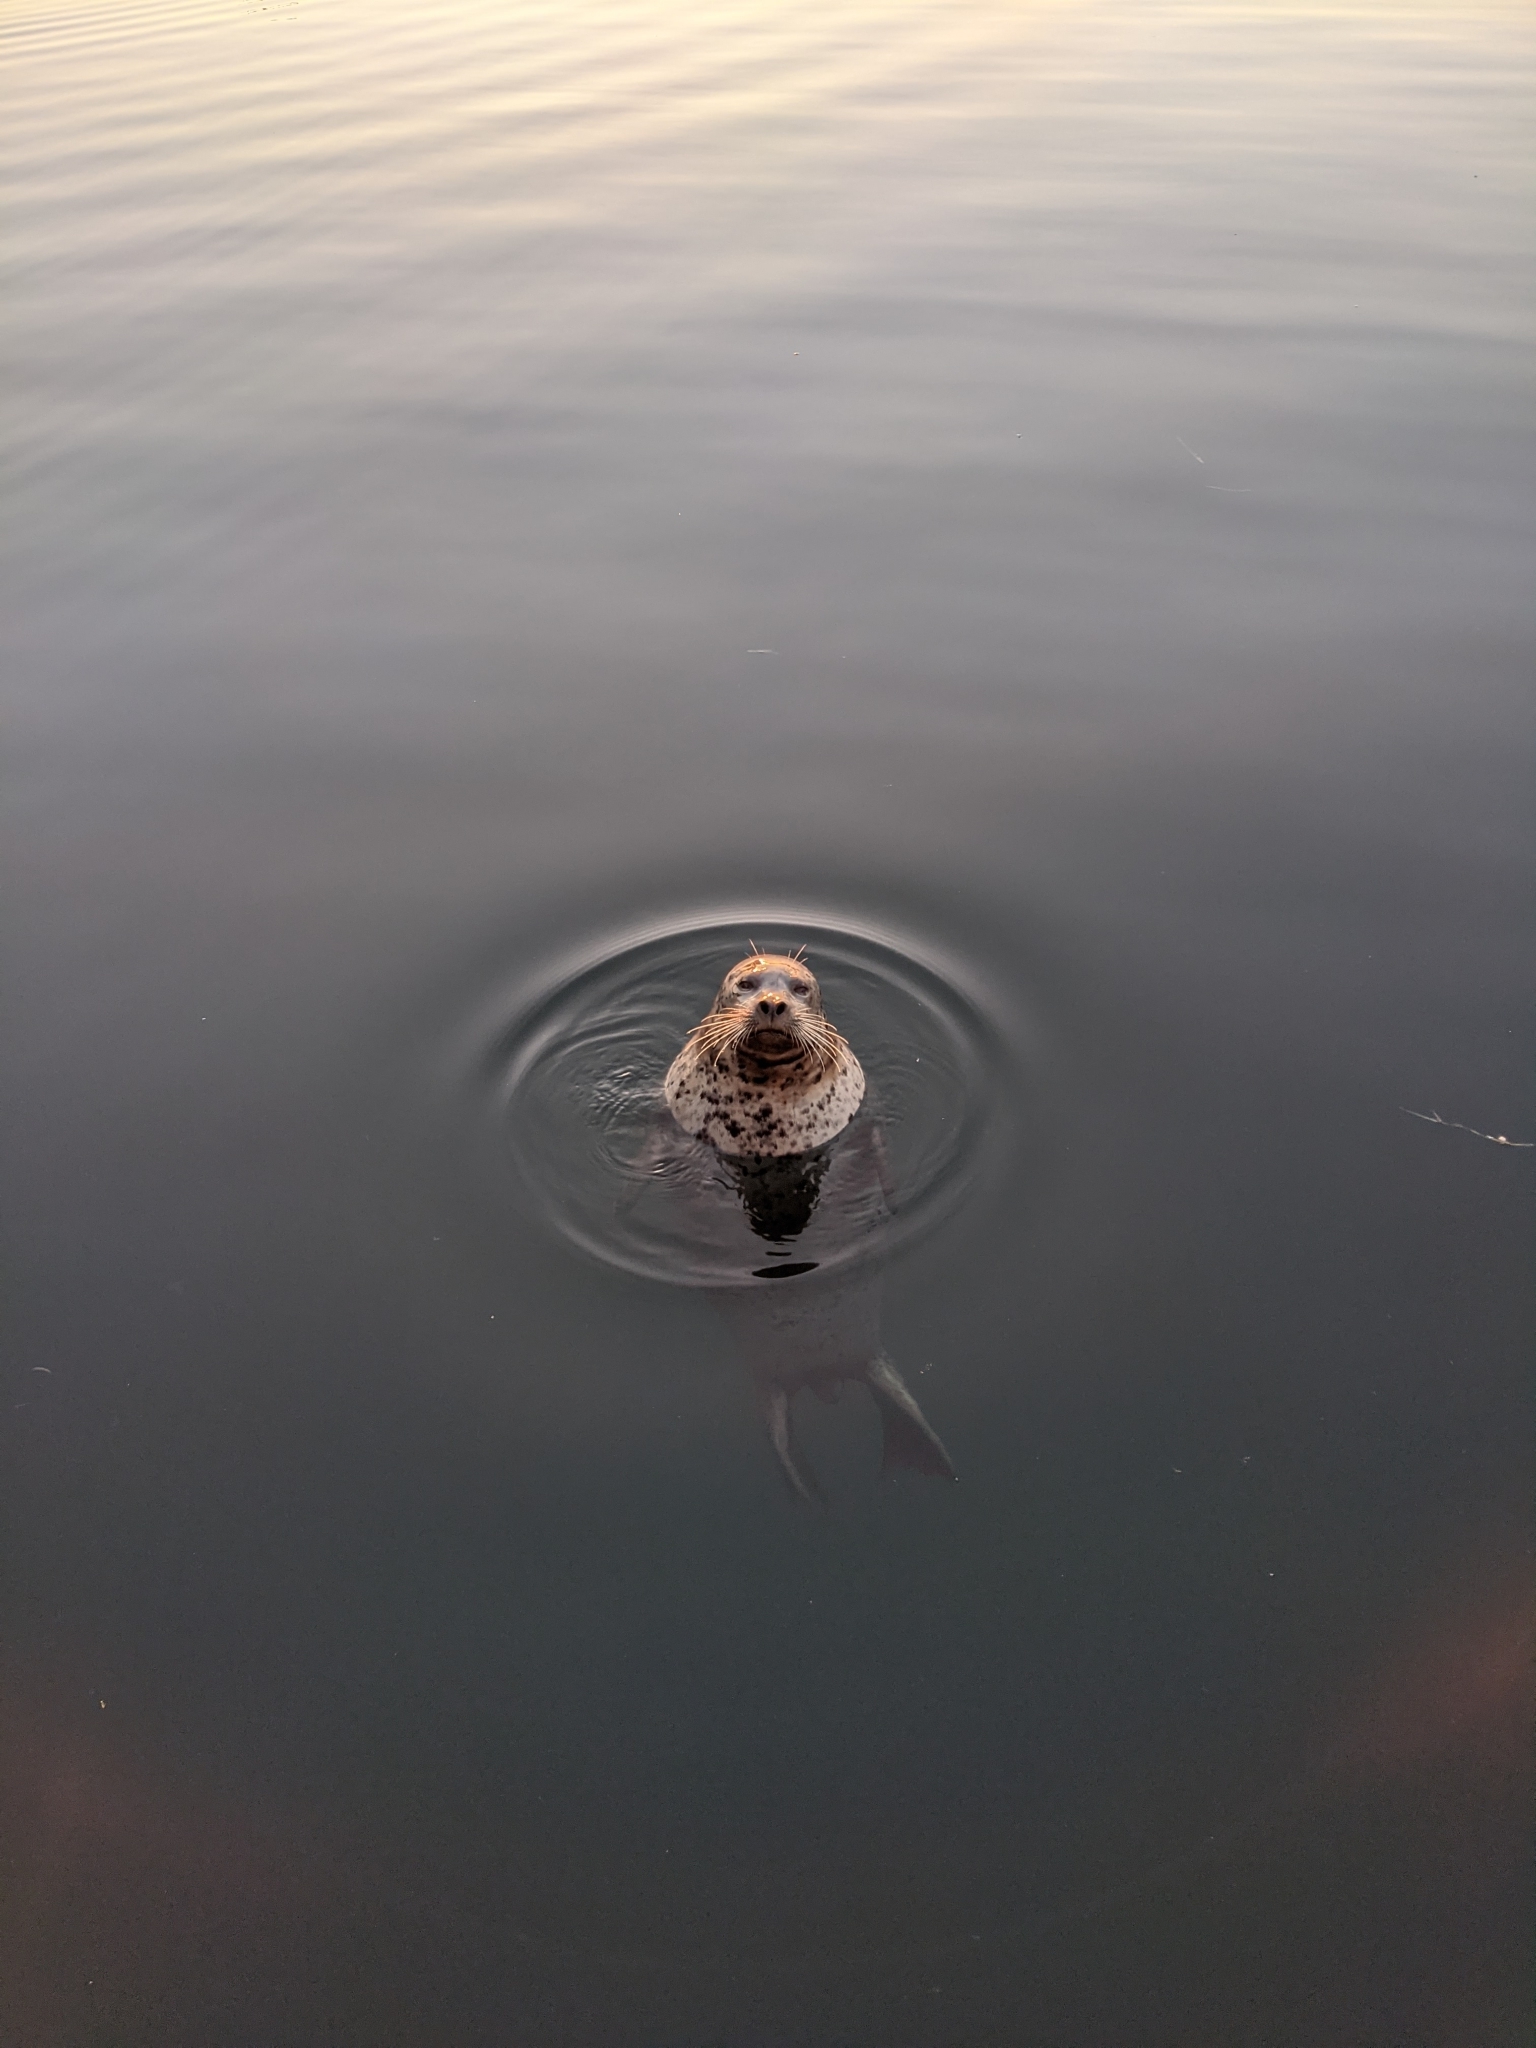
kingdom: Animalia
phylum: Chordata
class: Mammalia
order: Carnivora
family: Phocidae
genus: Phoca
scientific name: Phoca vitulina
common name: Harbor seal
